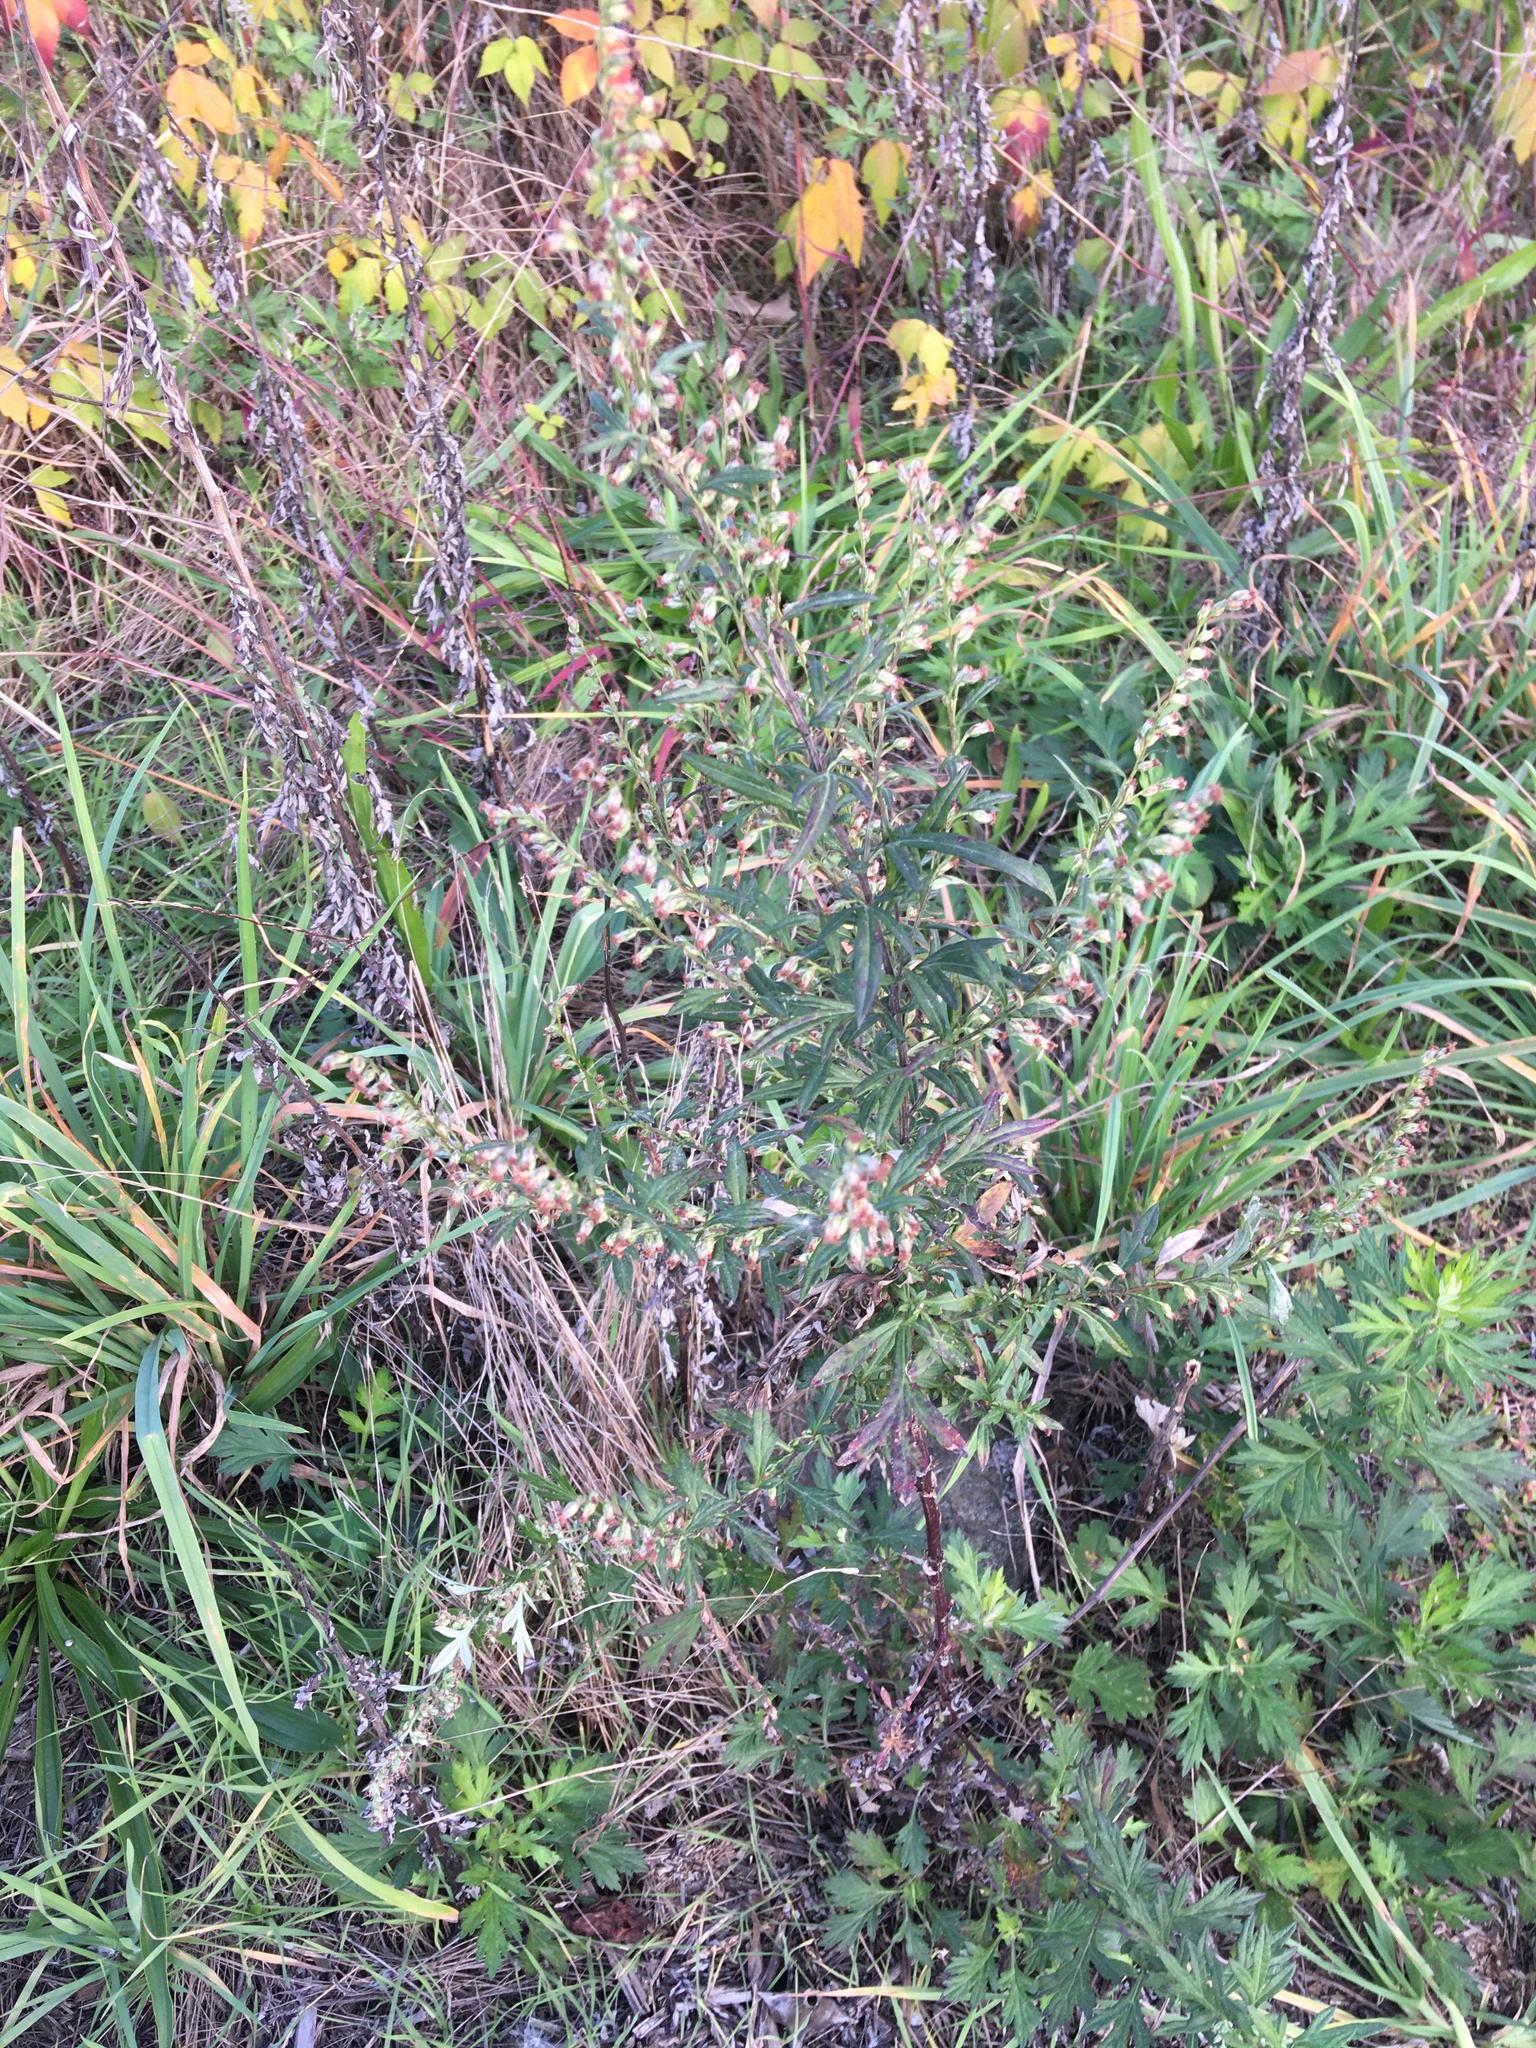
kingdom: Plantae
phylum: Tracheophyta
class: Magnoliopsida
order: Asterales
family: Asteraceae
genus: Artemisia
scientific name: Artemisia vulgaris
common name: Mugwort
